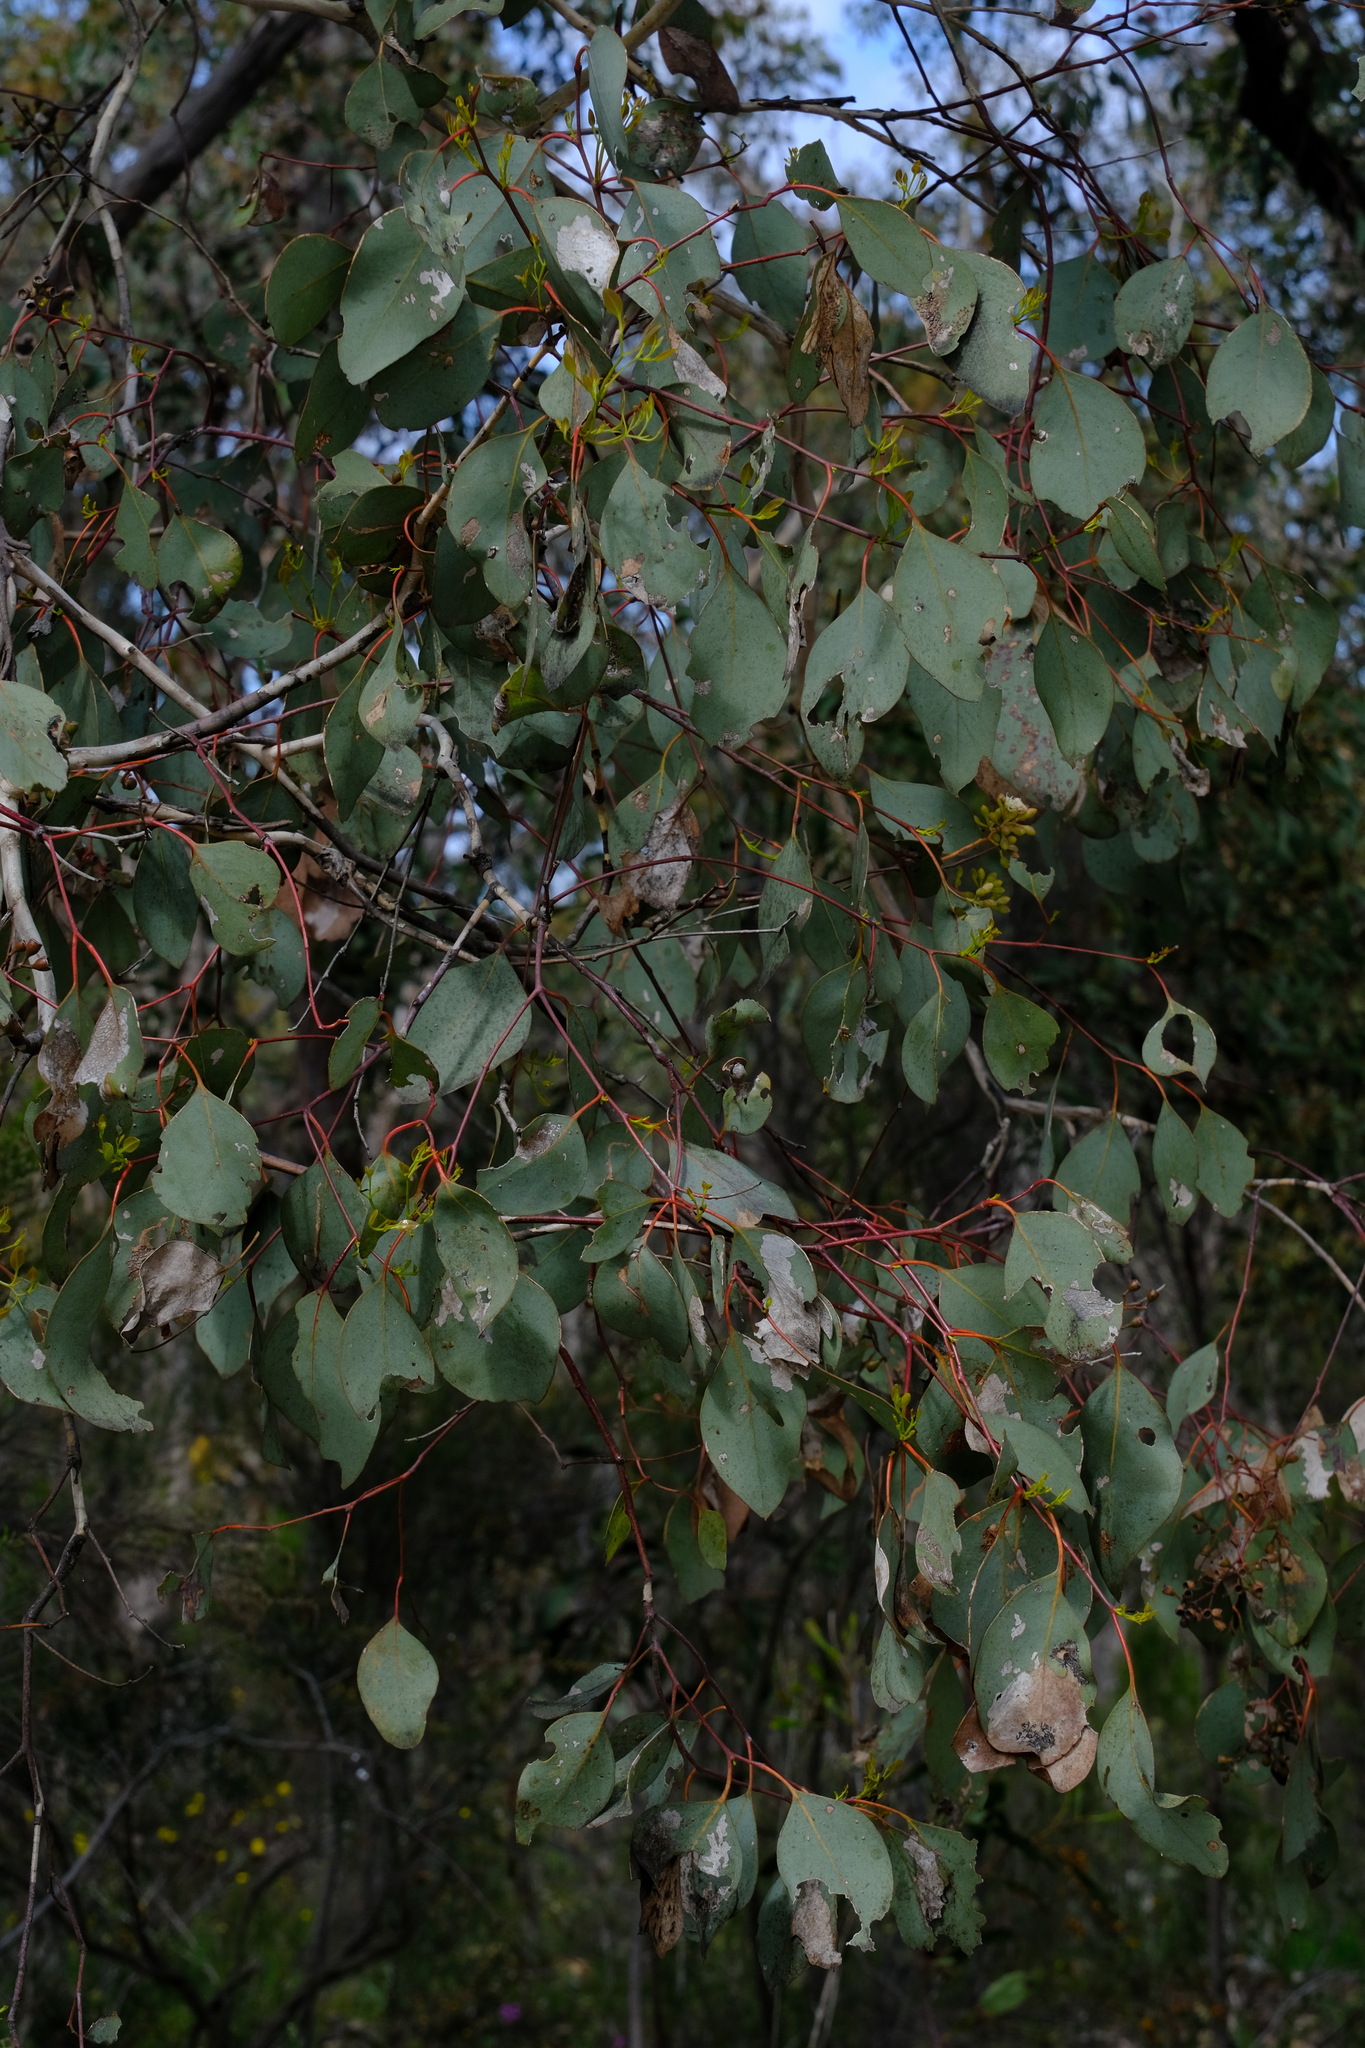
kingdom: Plantae
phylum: Tracheophyta
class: Magnoliopsida
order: Myrtales
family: Myrtaceae
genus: Eucalyptus
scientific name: Eucalyptus polyanthemos
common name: Red-box
